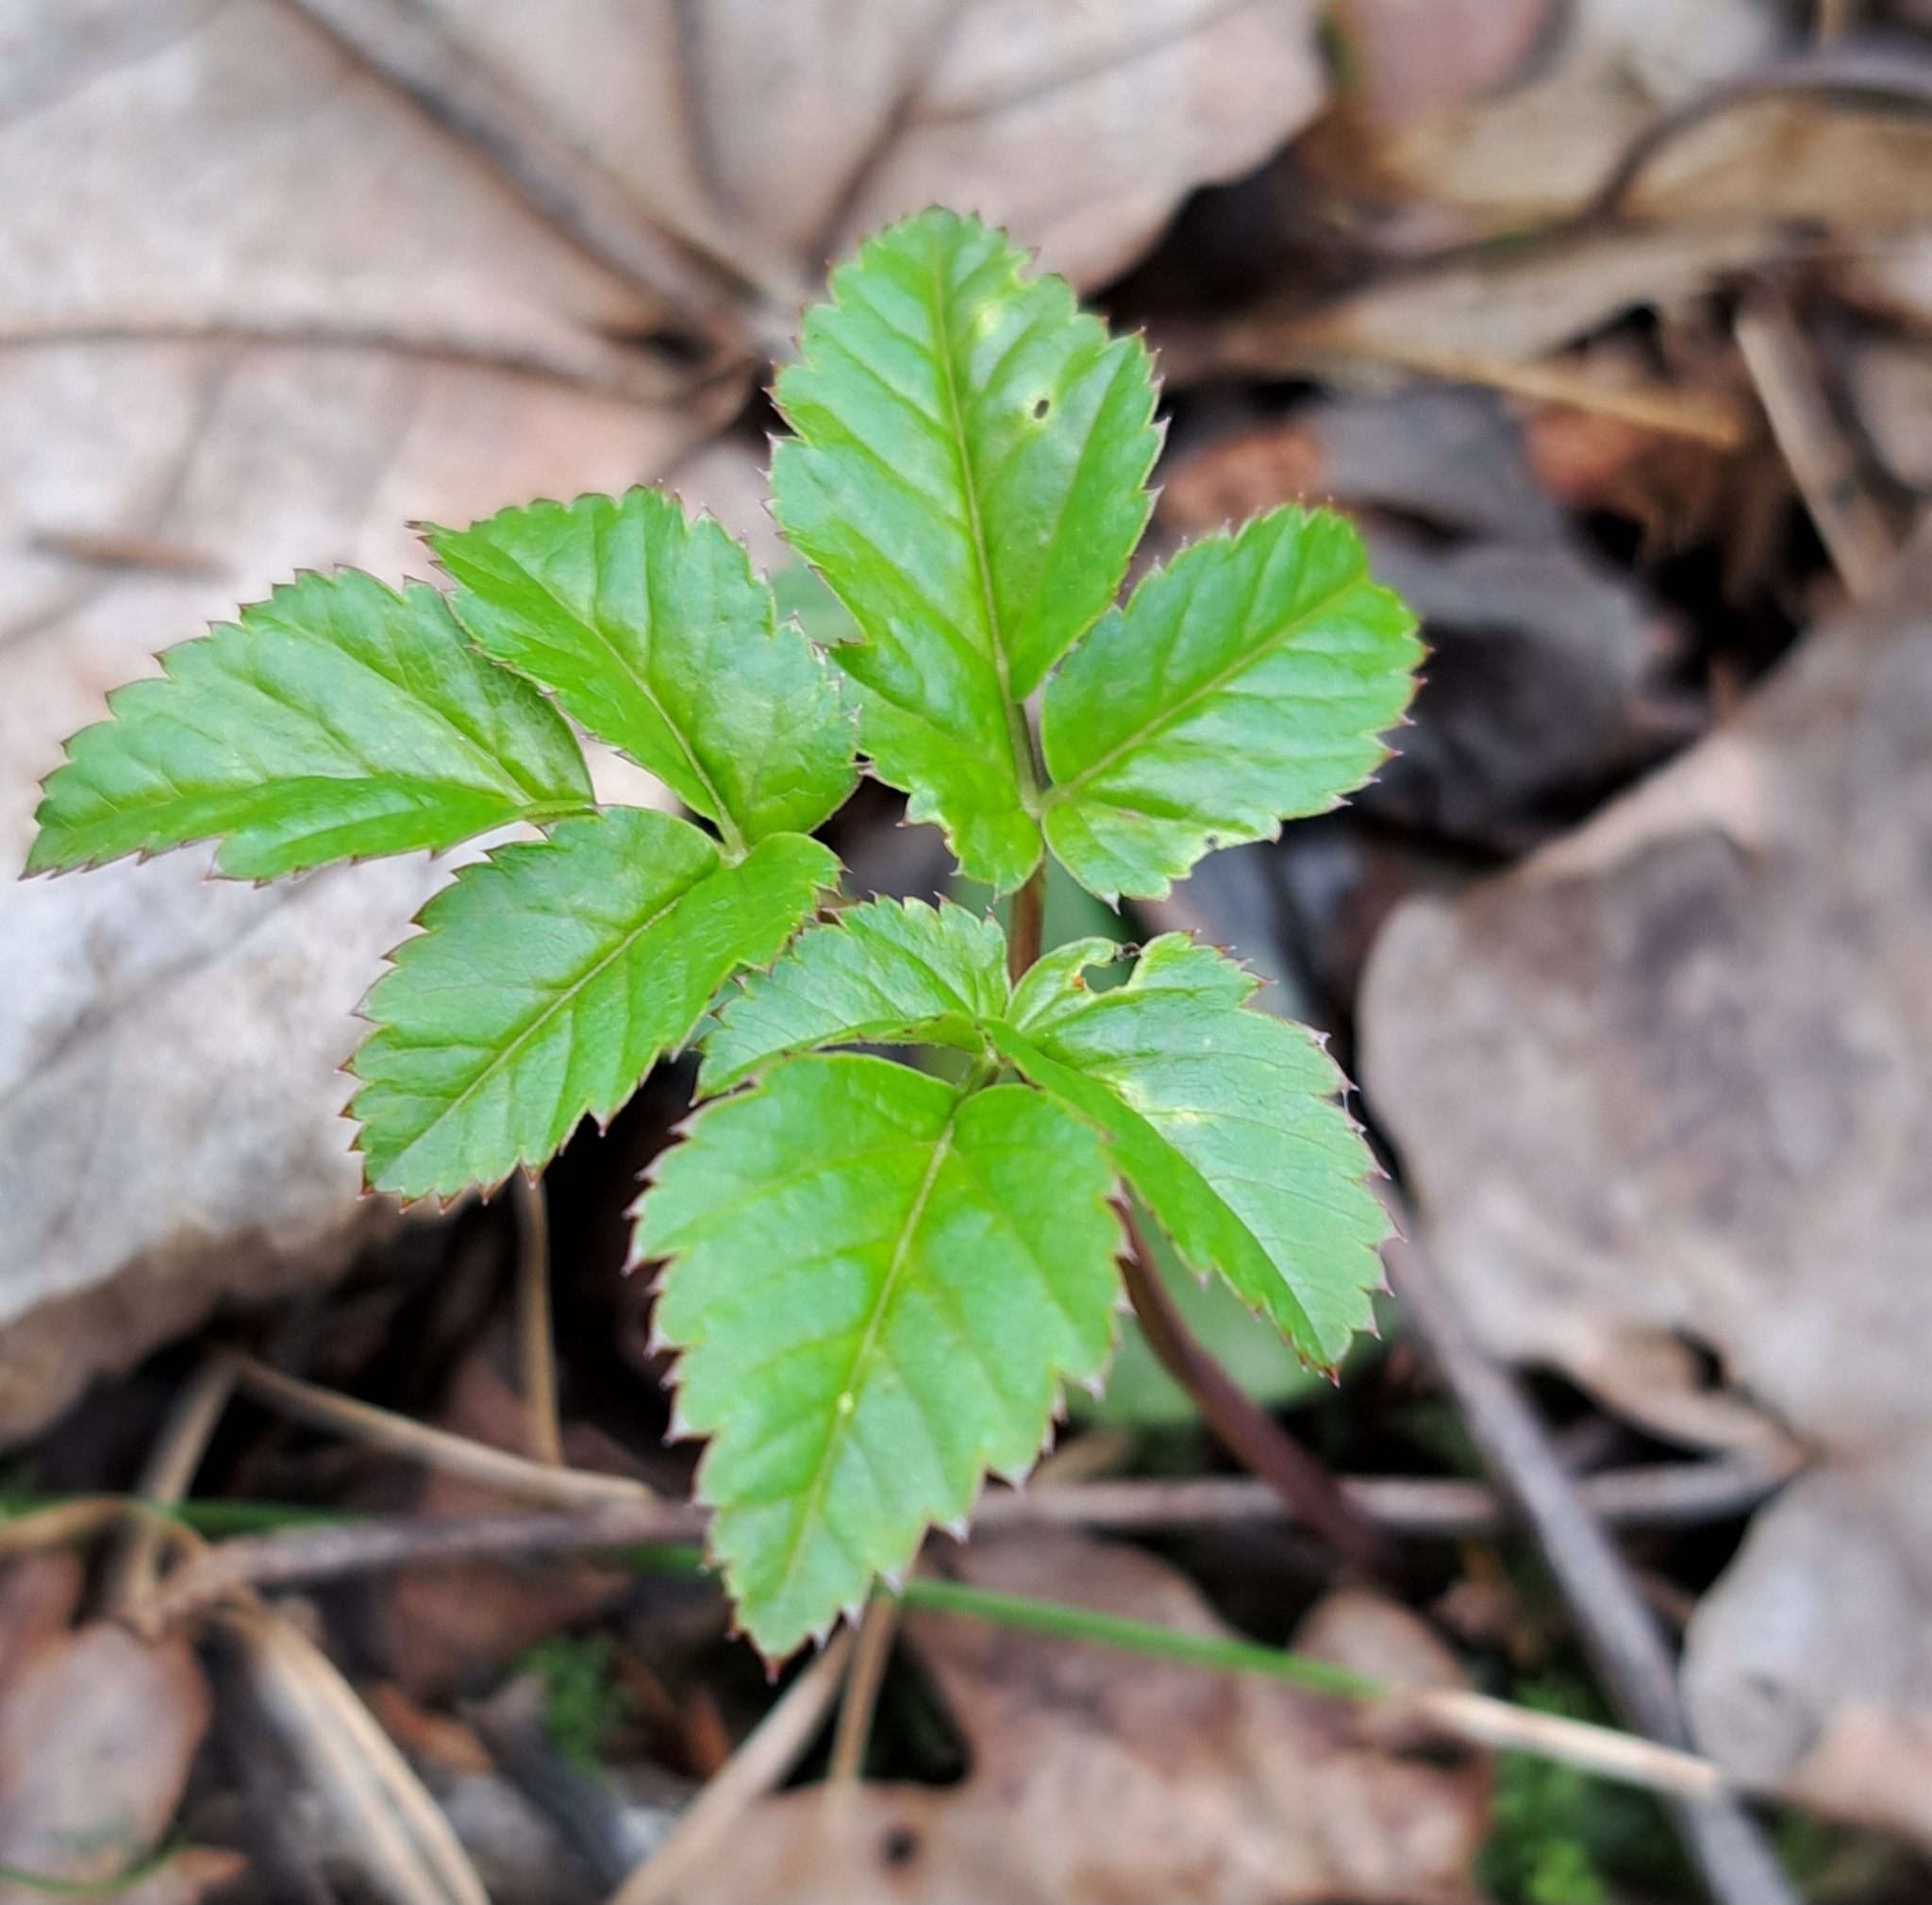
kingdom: Plantae
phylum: Tracheophyta
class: Magnoliopsida
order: Apiales
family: Apiaceae
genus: Aegopodium
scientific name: Aegopodium podagraria
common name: Ground-elder
